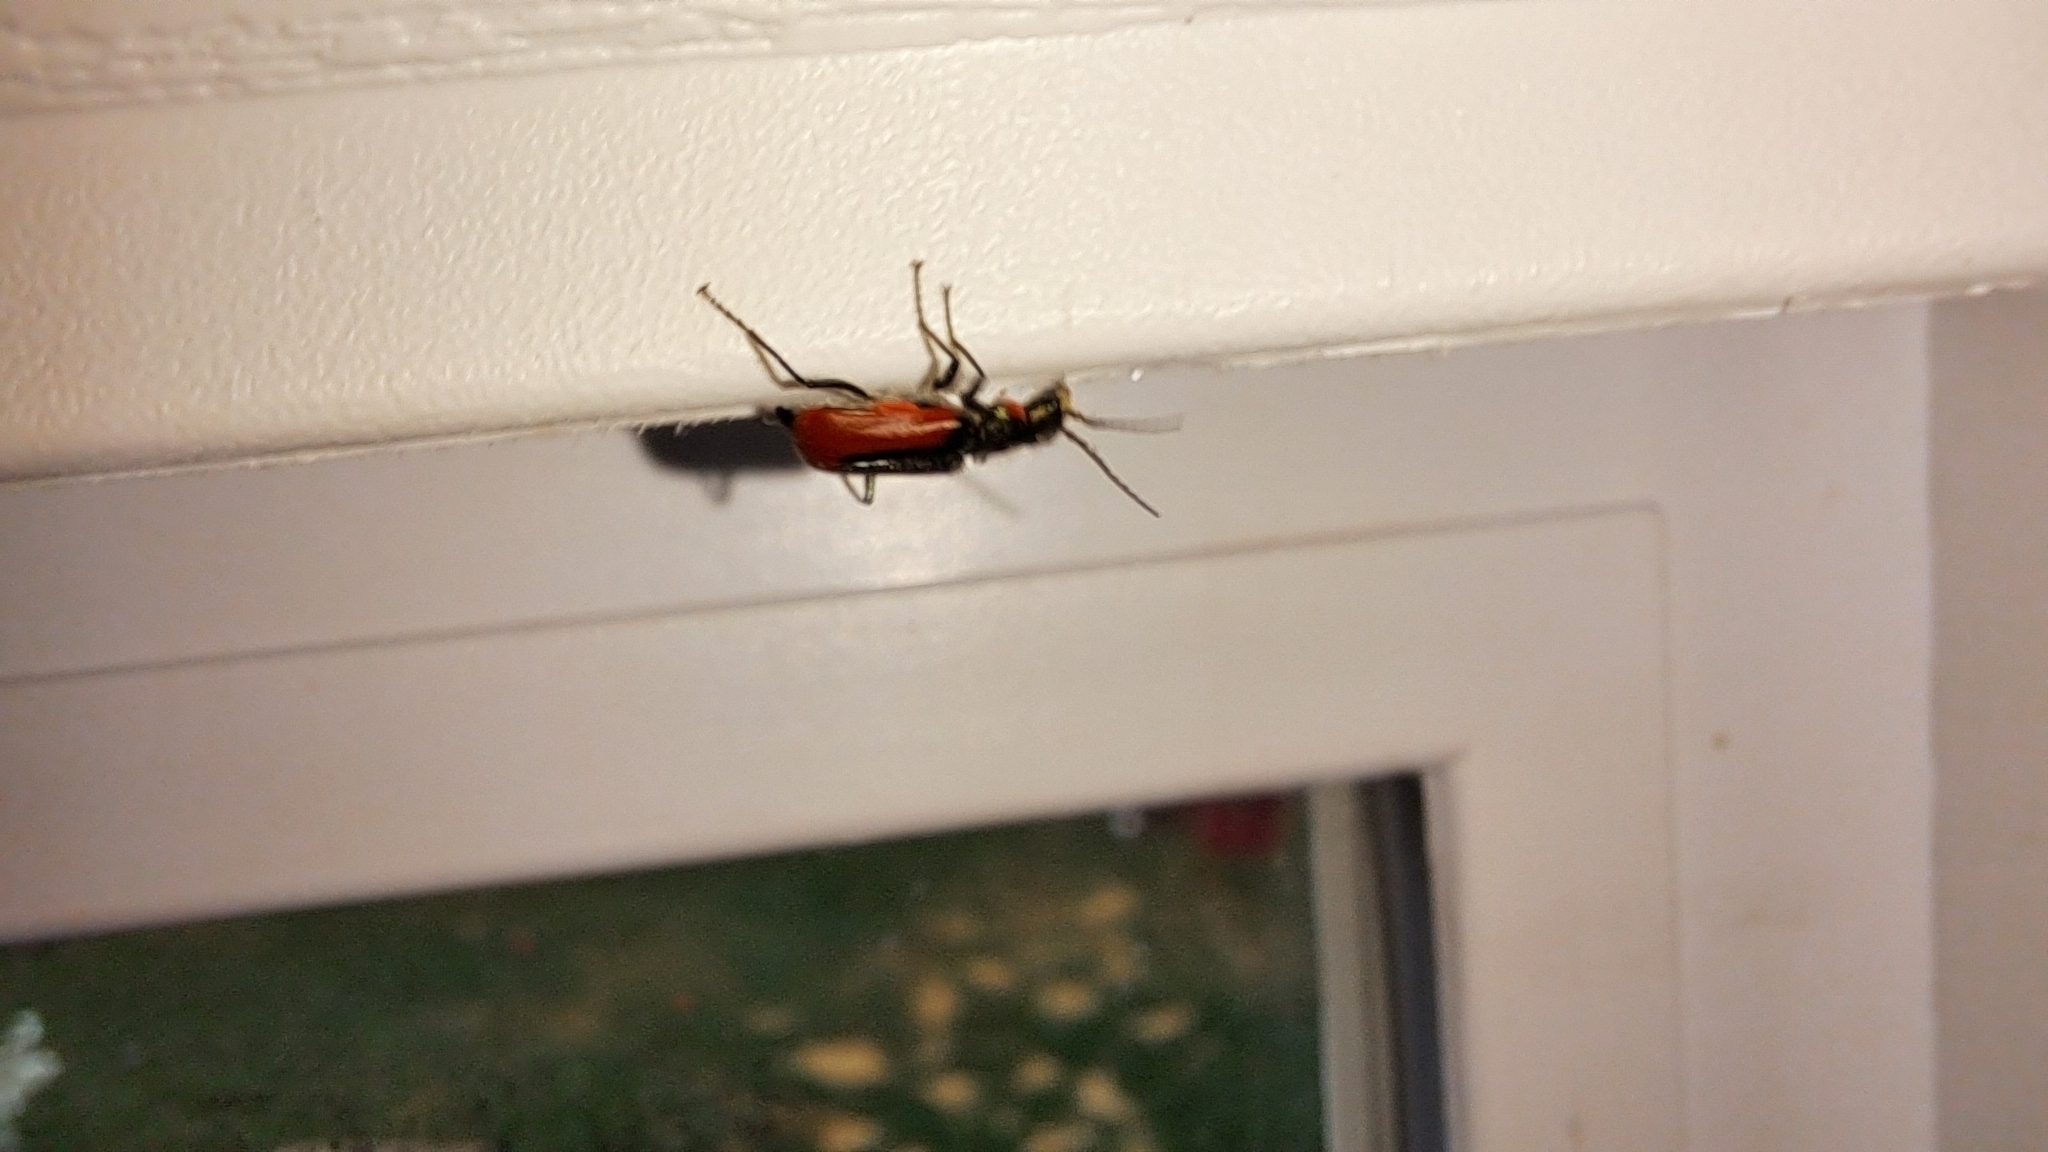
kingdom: Animalia
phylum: Arthropoda
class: Insecta
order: Coleoptera
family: Melyridae
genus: Malachius
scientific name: Malachius aeneus
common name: Scarlet malachite beetle
